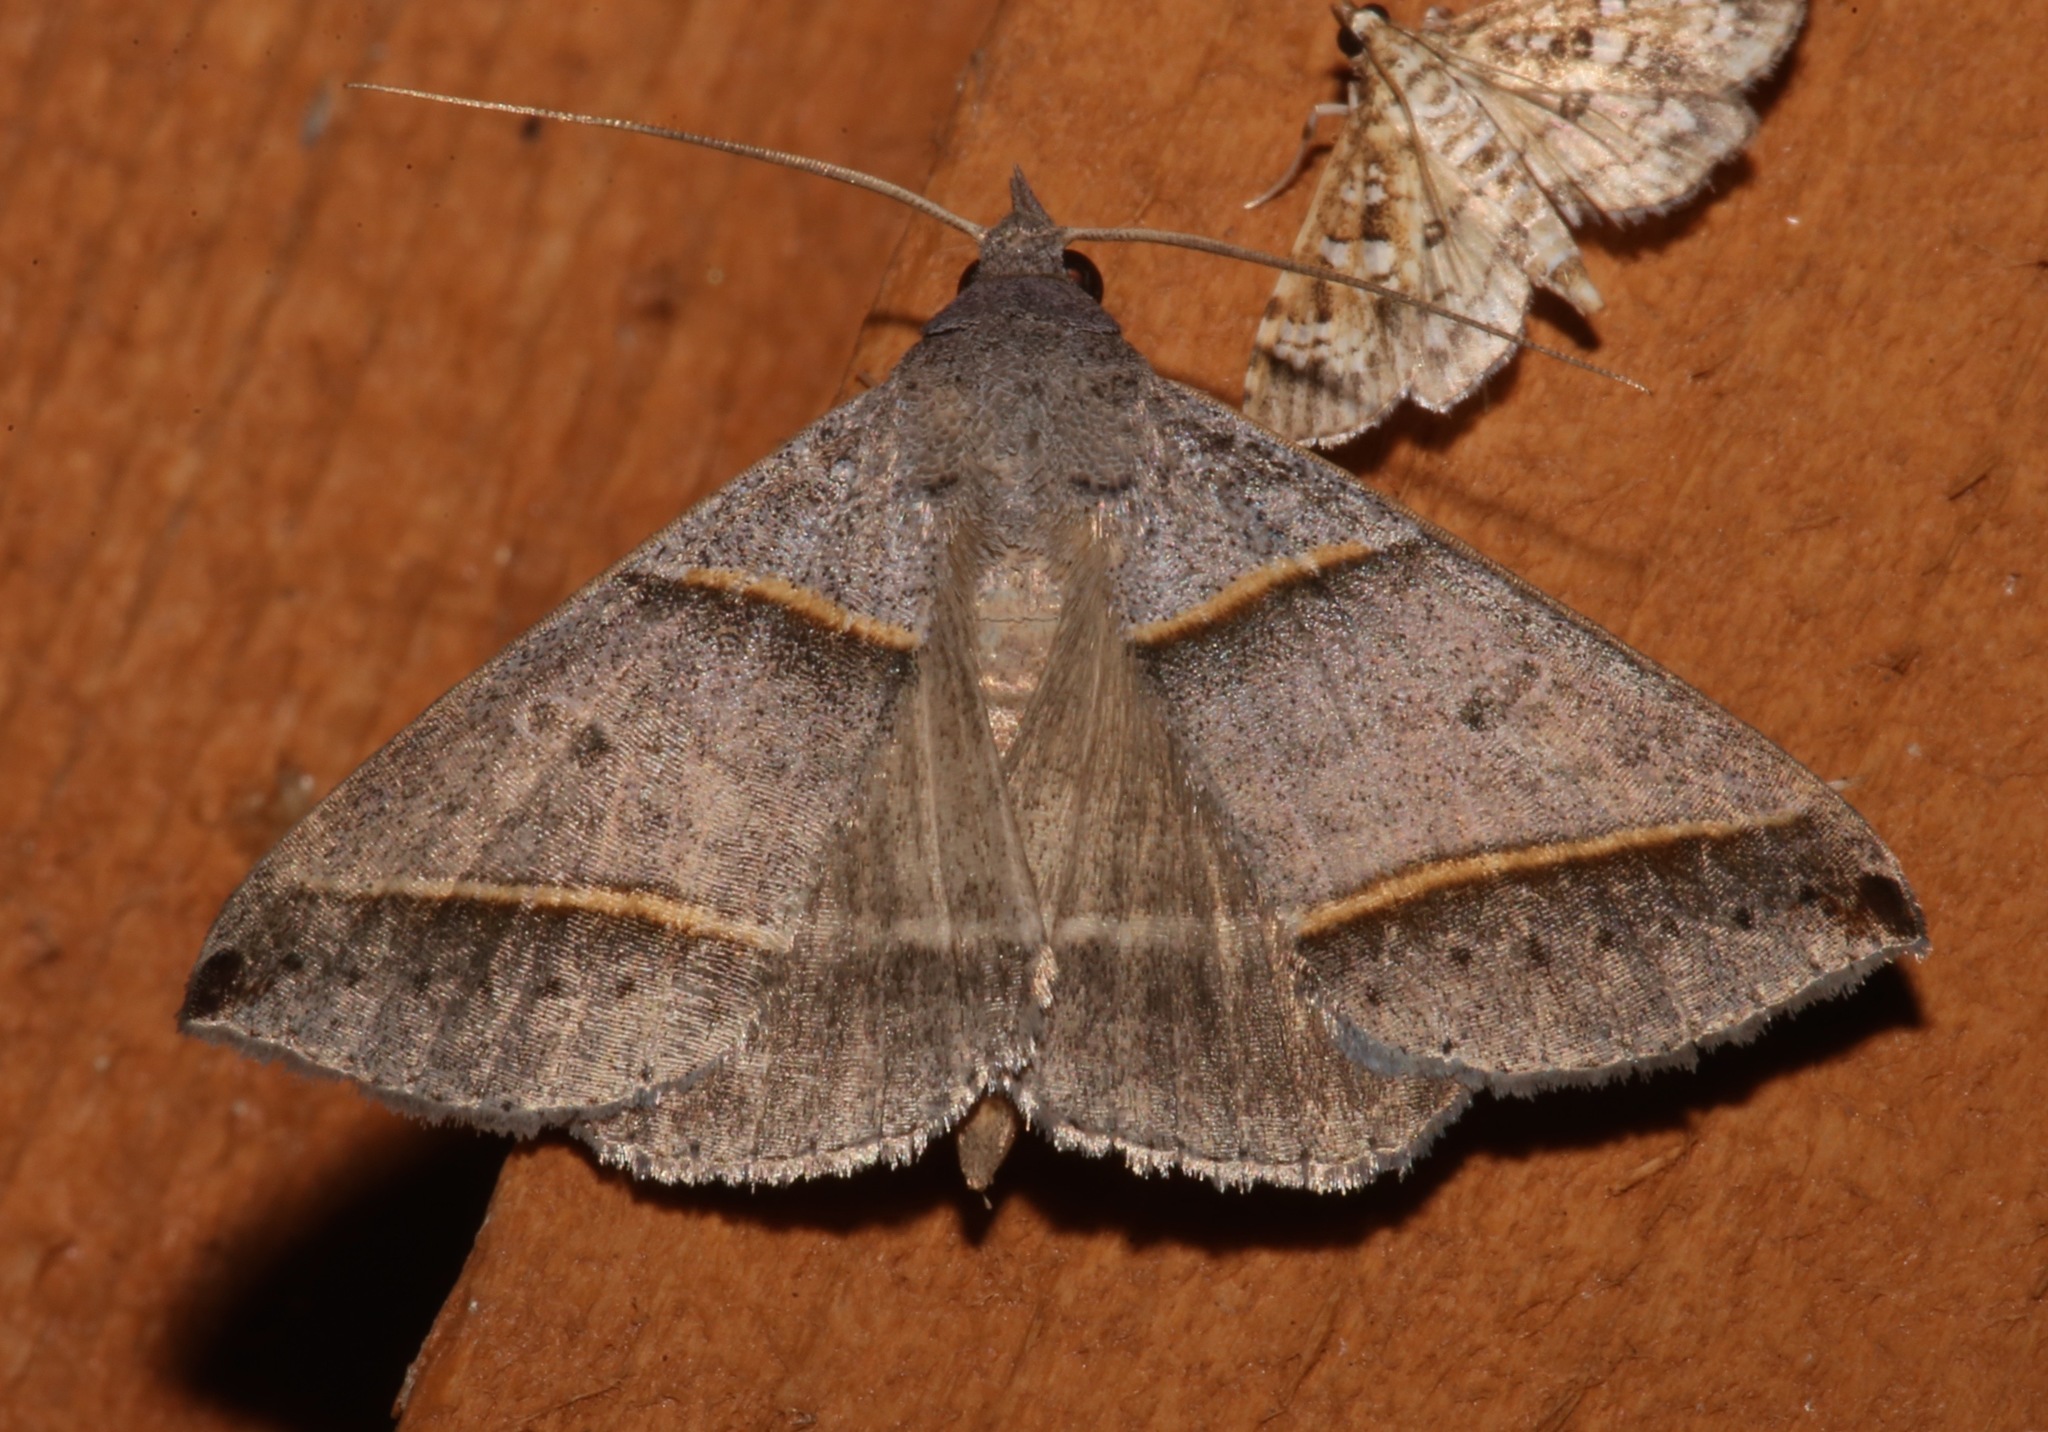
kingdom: Animalia
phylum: Arthropoda
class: Insecta
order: Lepidoptera
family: Erebidae
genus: Ptichodis
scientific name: Ptichodis vinculum
